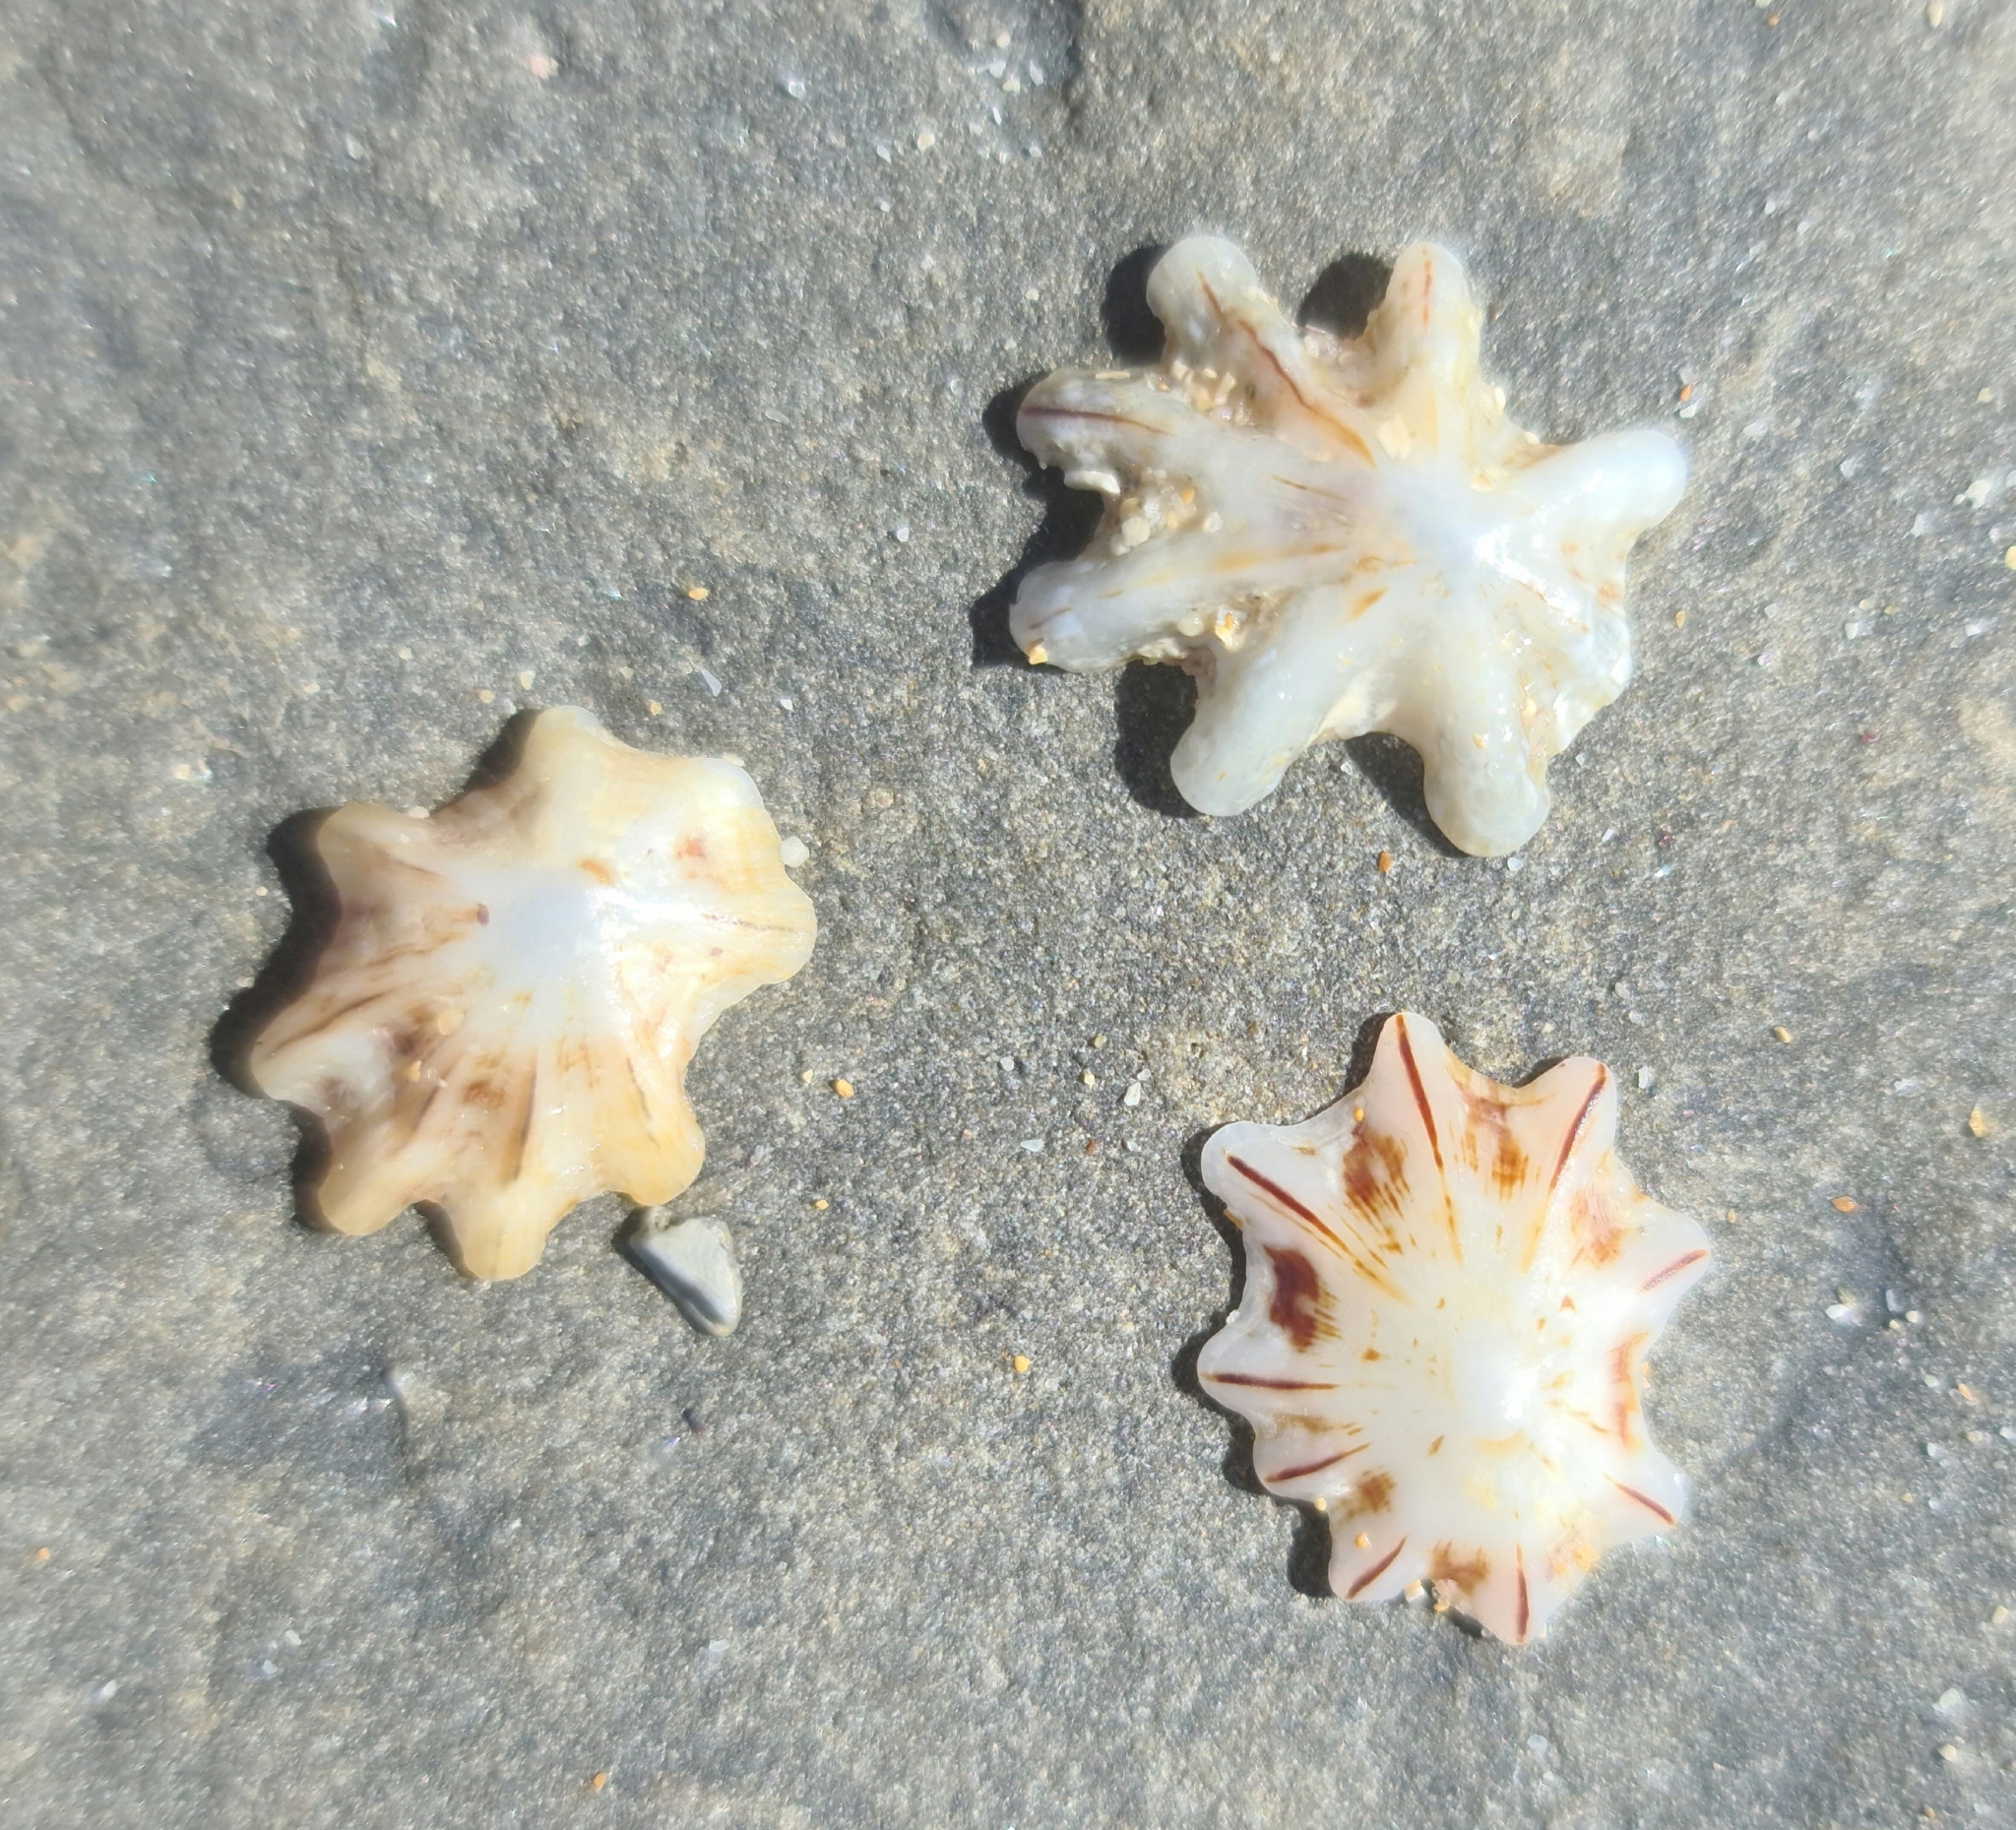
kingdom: Animalia
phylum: Mollusca
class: Gastropoda
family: Patellidae
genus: Scutellastra
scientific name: Scutellastra chapmani
